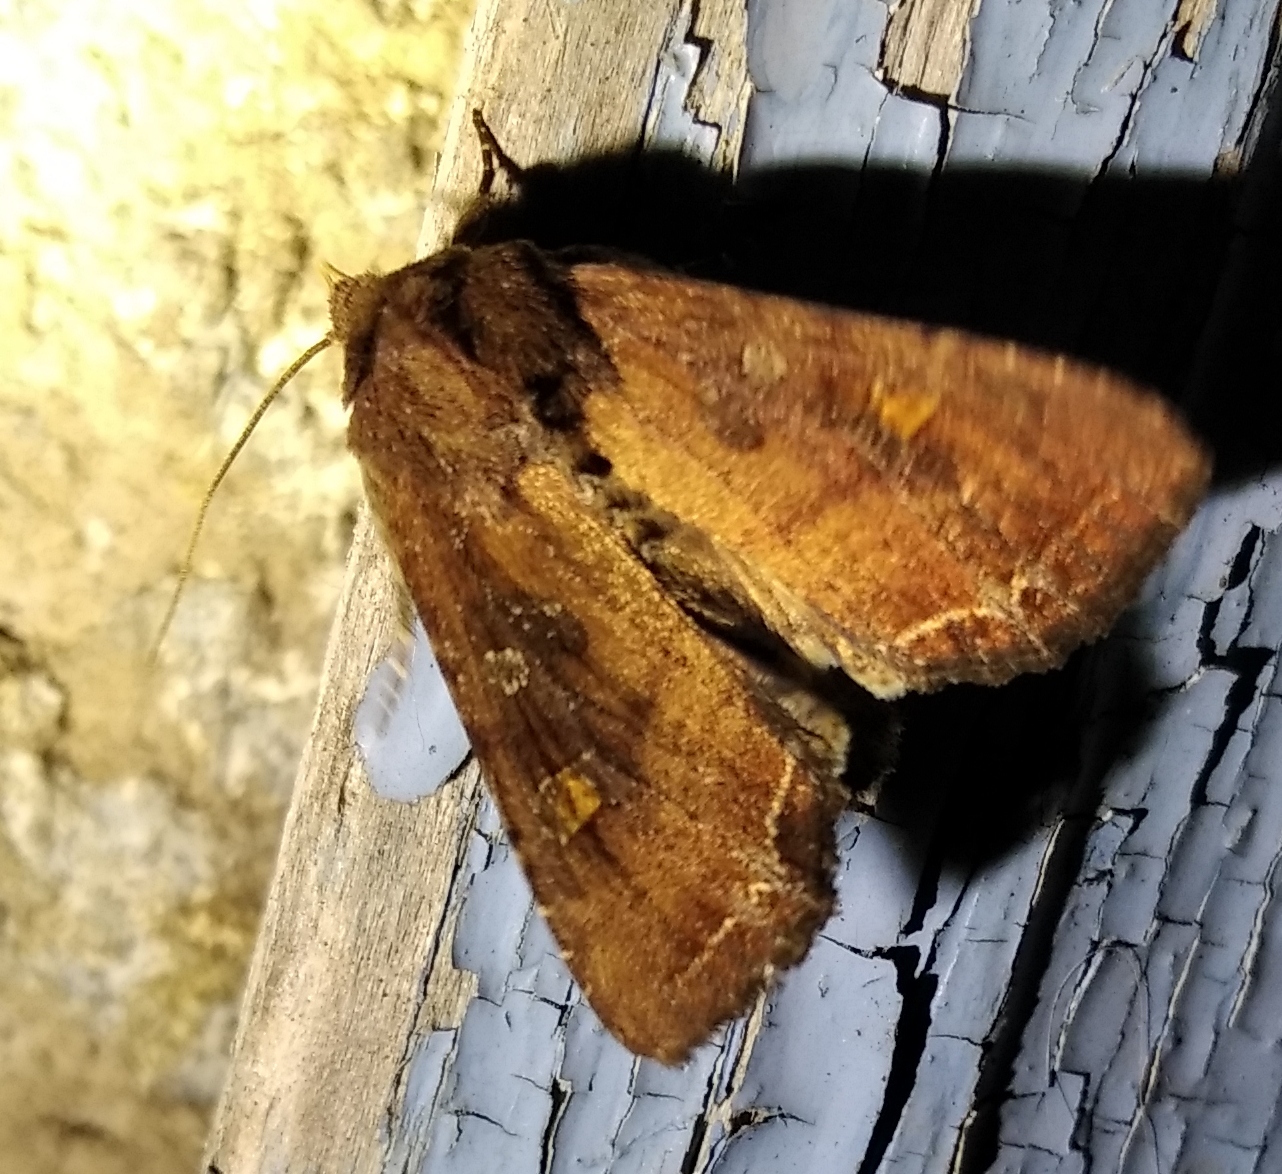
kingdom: Animalia
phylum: Arthropoda
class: Insecta
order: Lepidoptera
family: Noctuidae
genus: Lacanobia
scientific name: Lacanobia oleracea
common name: Bright-line brown-eye
